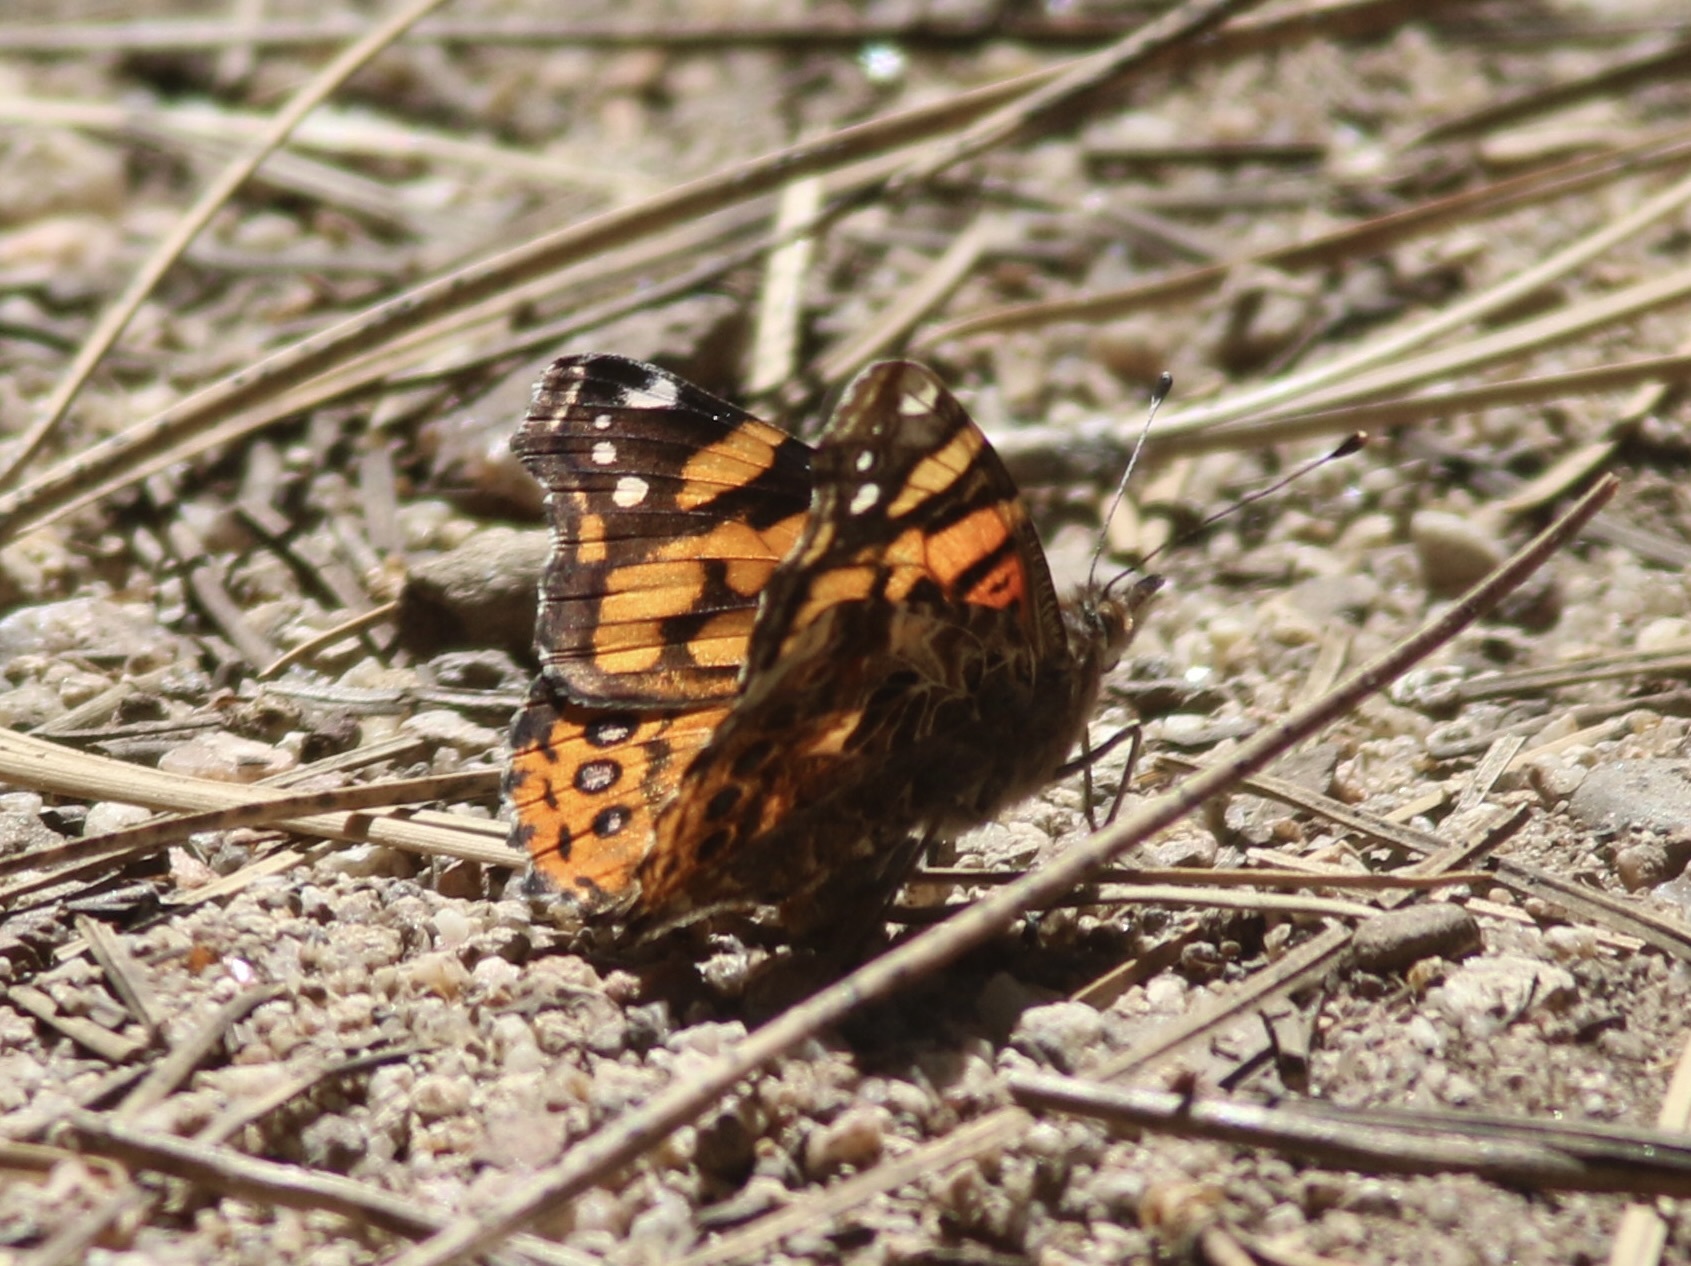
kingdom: Animalia
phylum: Arthropoda
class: Insecta
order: Lepidoptera
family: Nymphalidae
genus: Vanessa
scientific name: Vanessa annabella
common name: West coast lady
